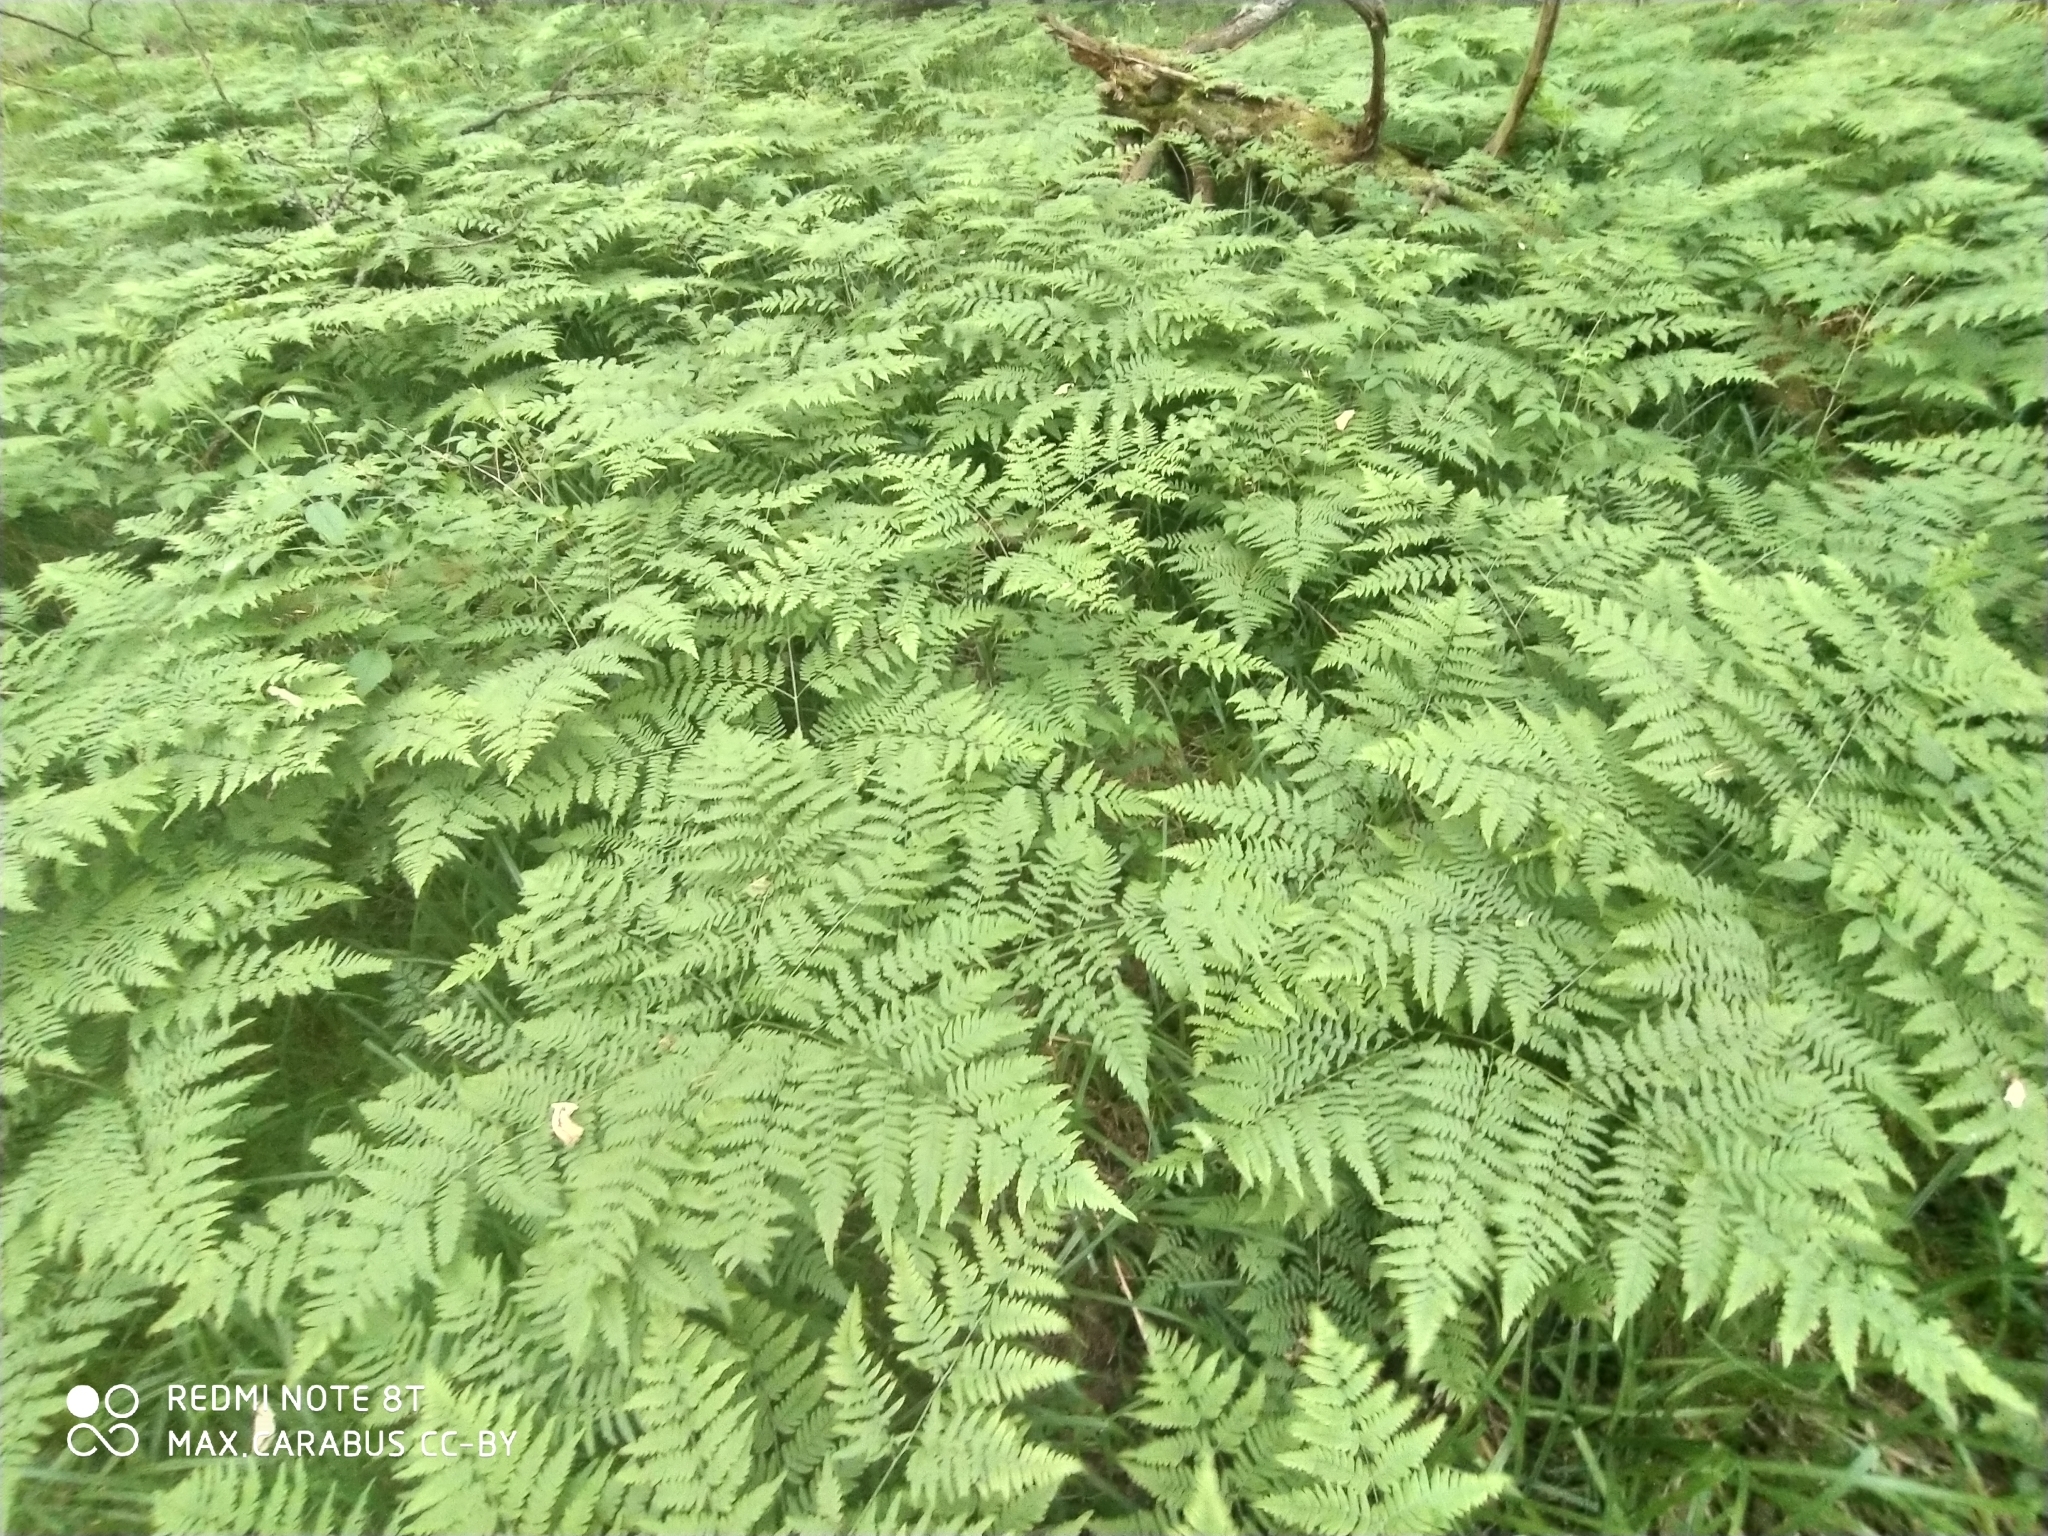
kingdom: Plantae
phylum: Tracheophyta
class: Polypodiopsida
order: Polypodiales
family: Dennstaedtiaceae
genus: Pteridium
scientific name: Pteridium aquilinum
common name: Bracken
